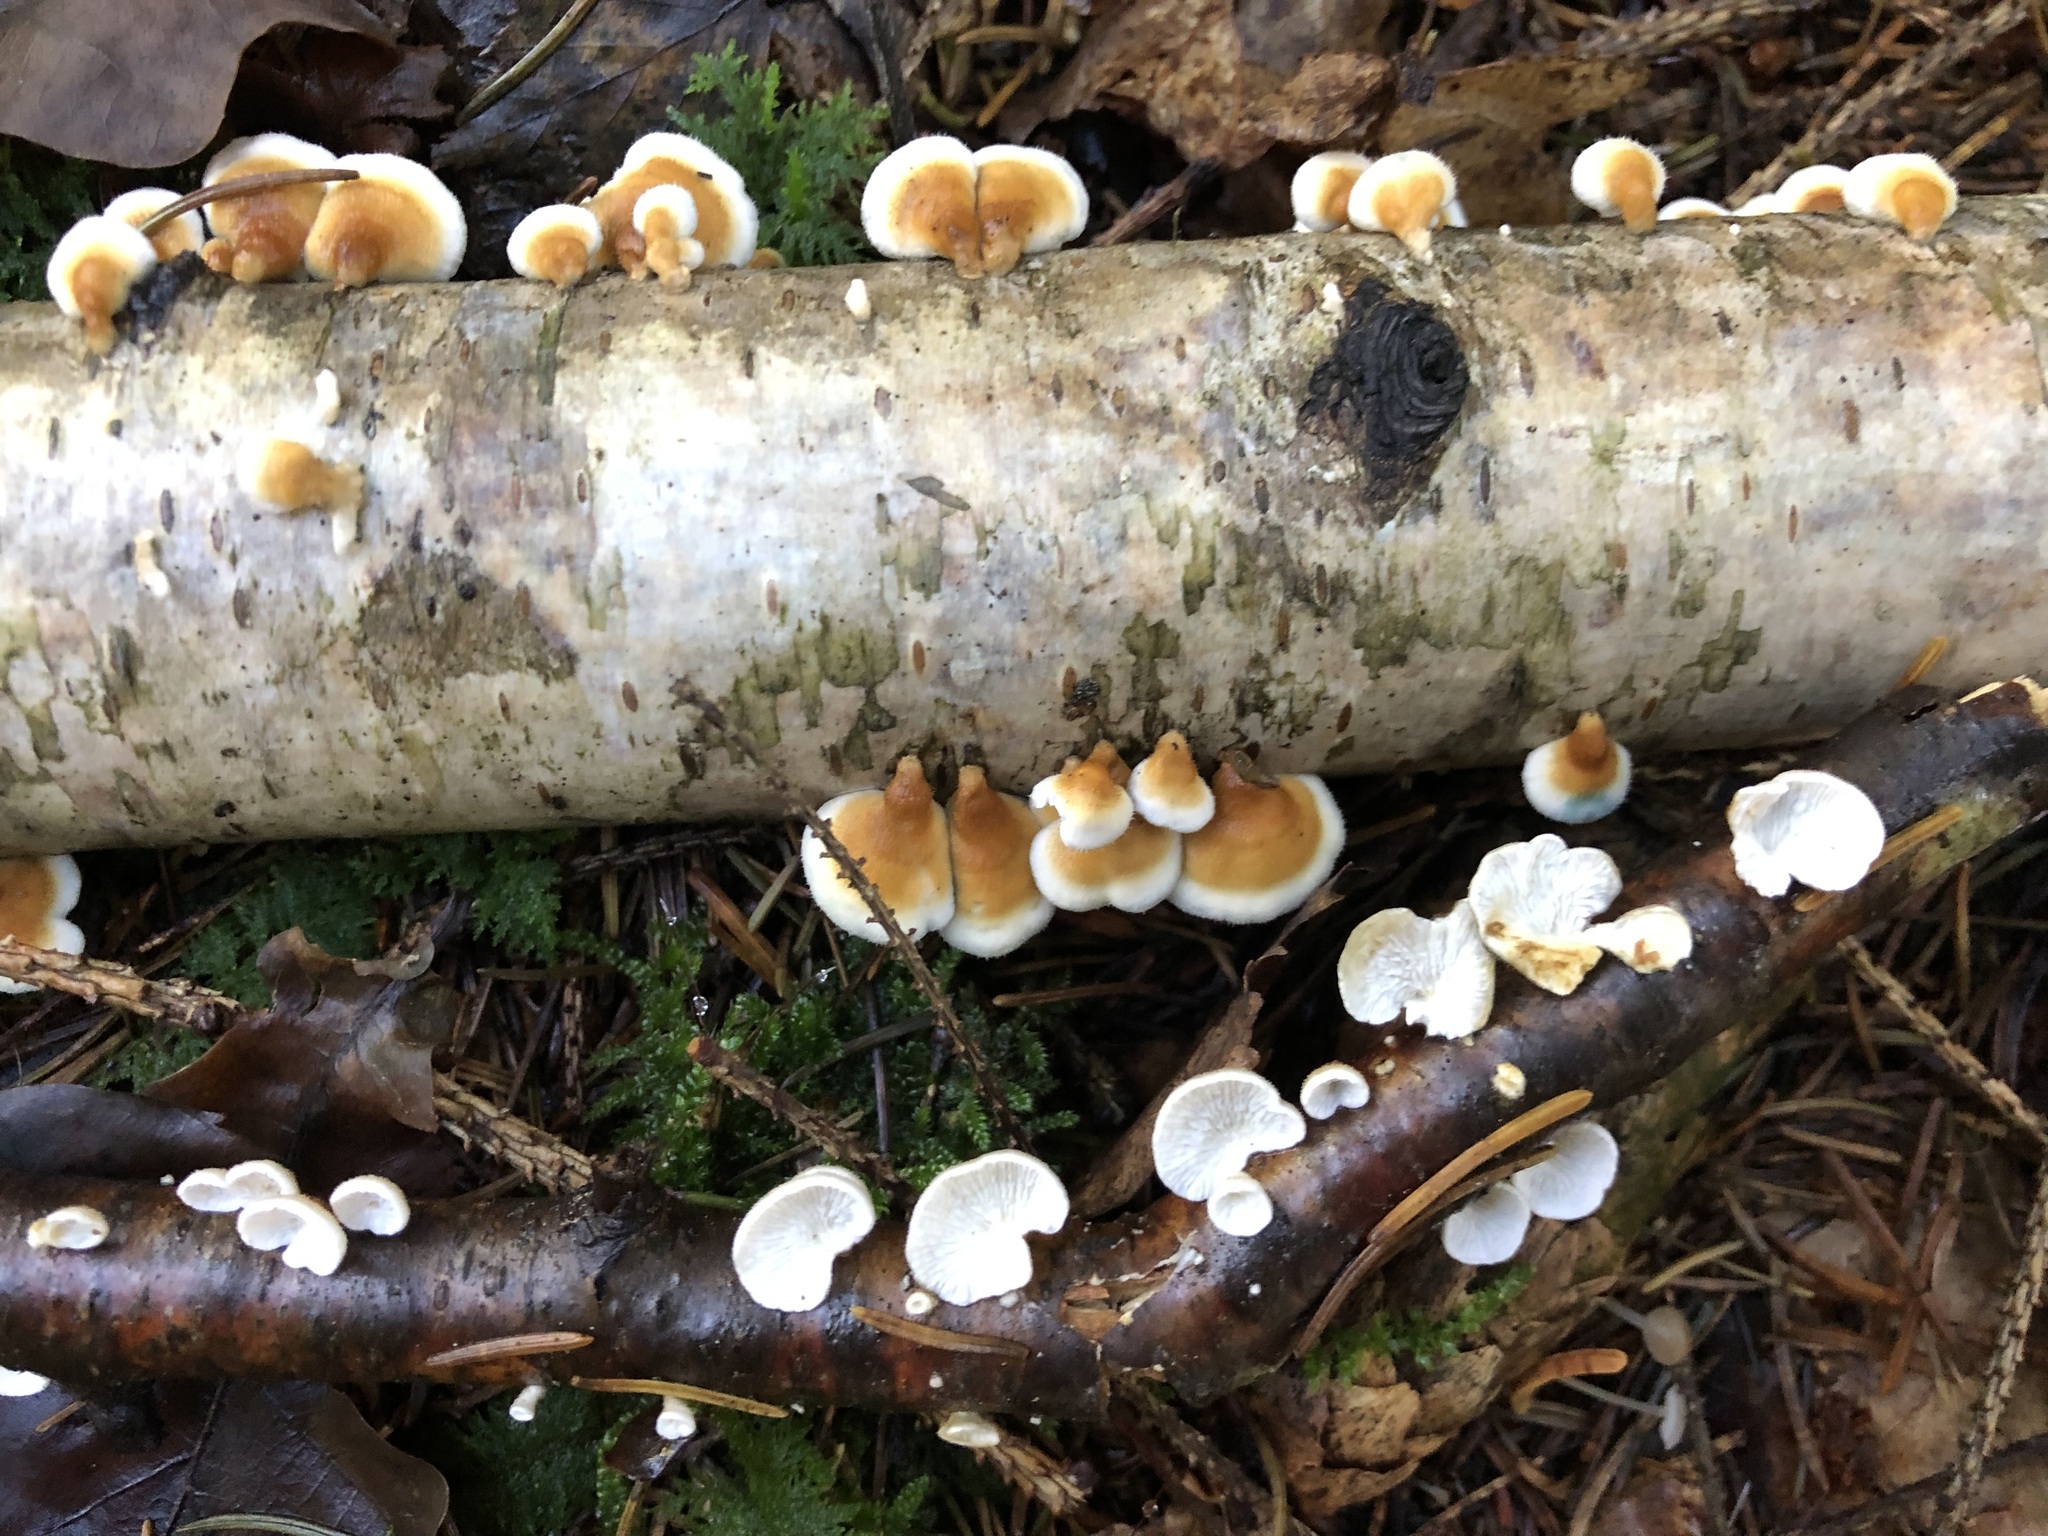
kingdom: Fungi
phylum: Basidiomycota
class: Agaricomycetes
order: Amylocorticiales
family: Amylocorticiaceae
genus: Plicaturopsis
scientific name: Plicaturopsis crispa
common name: Crimped gill
